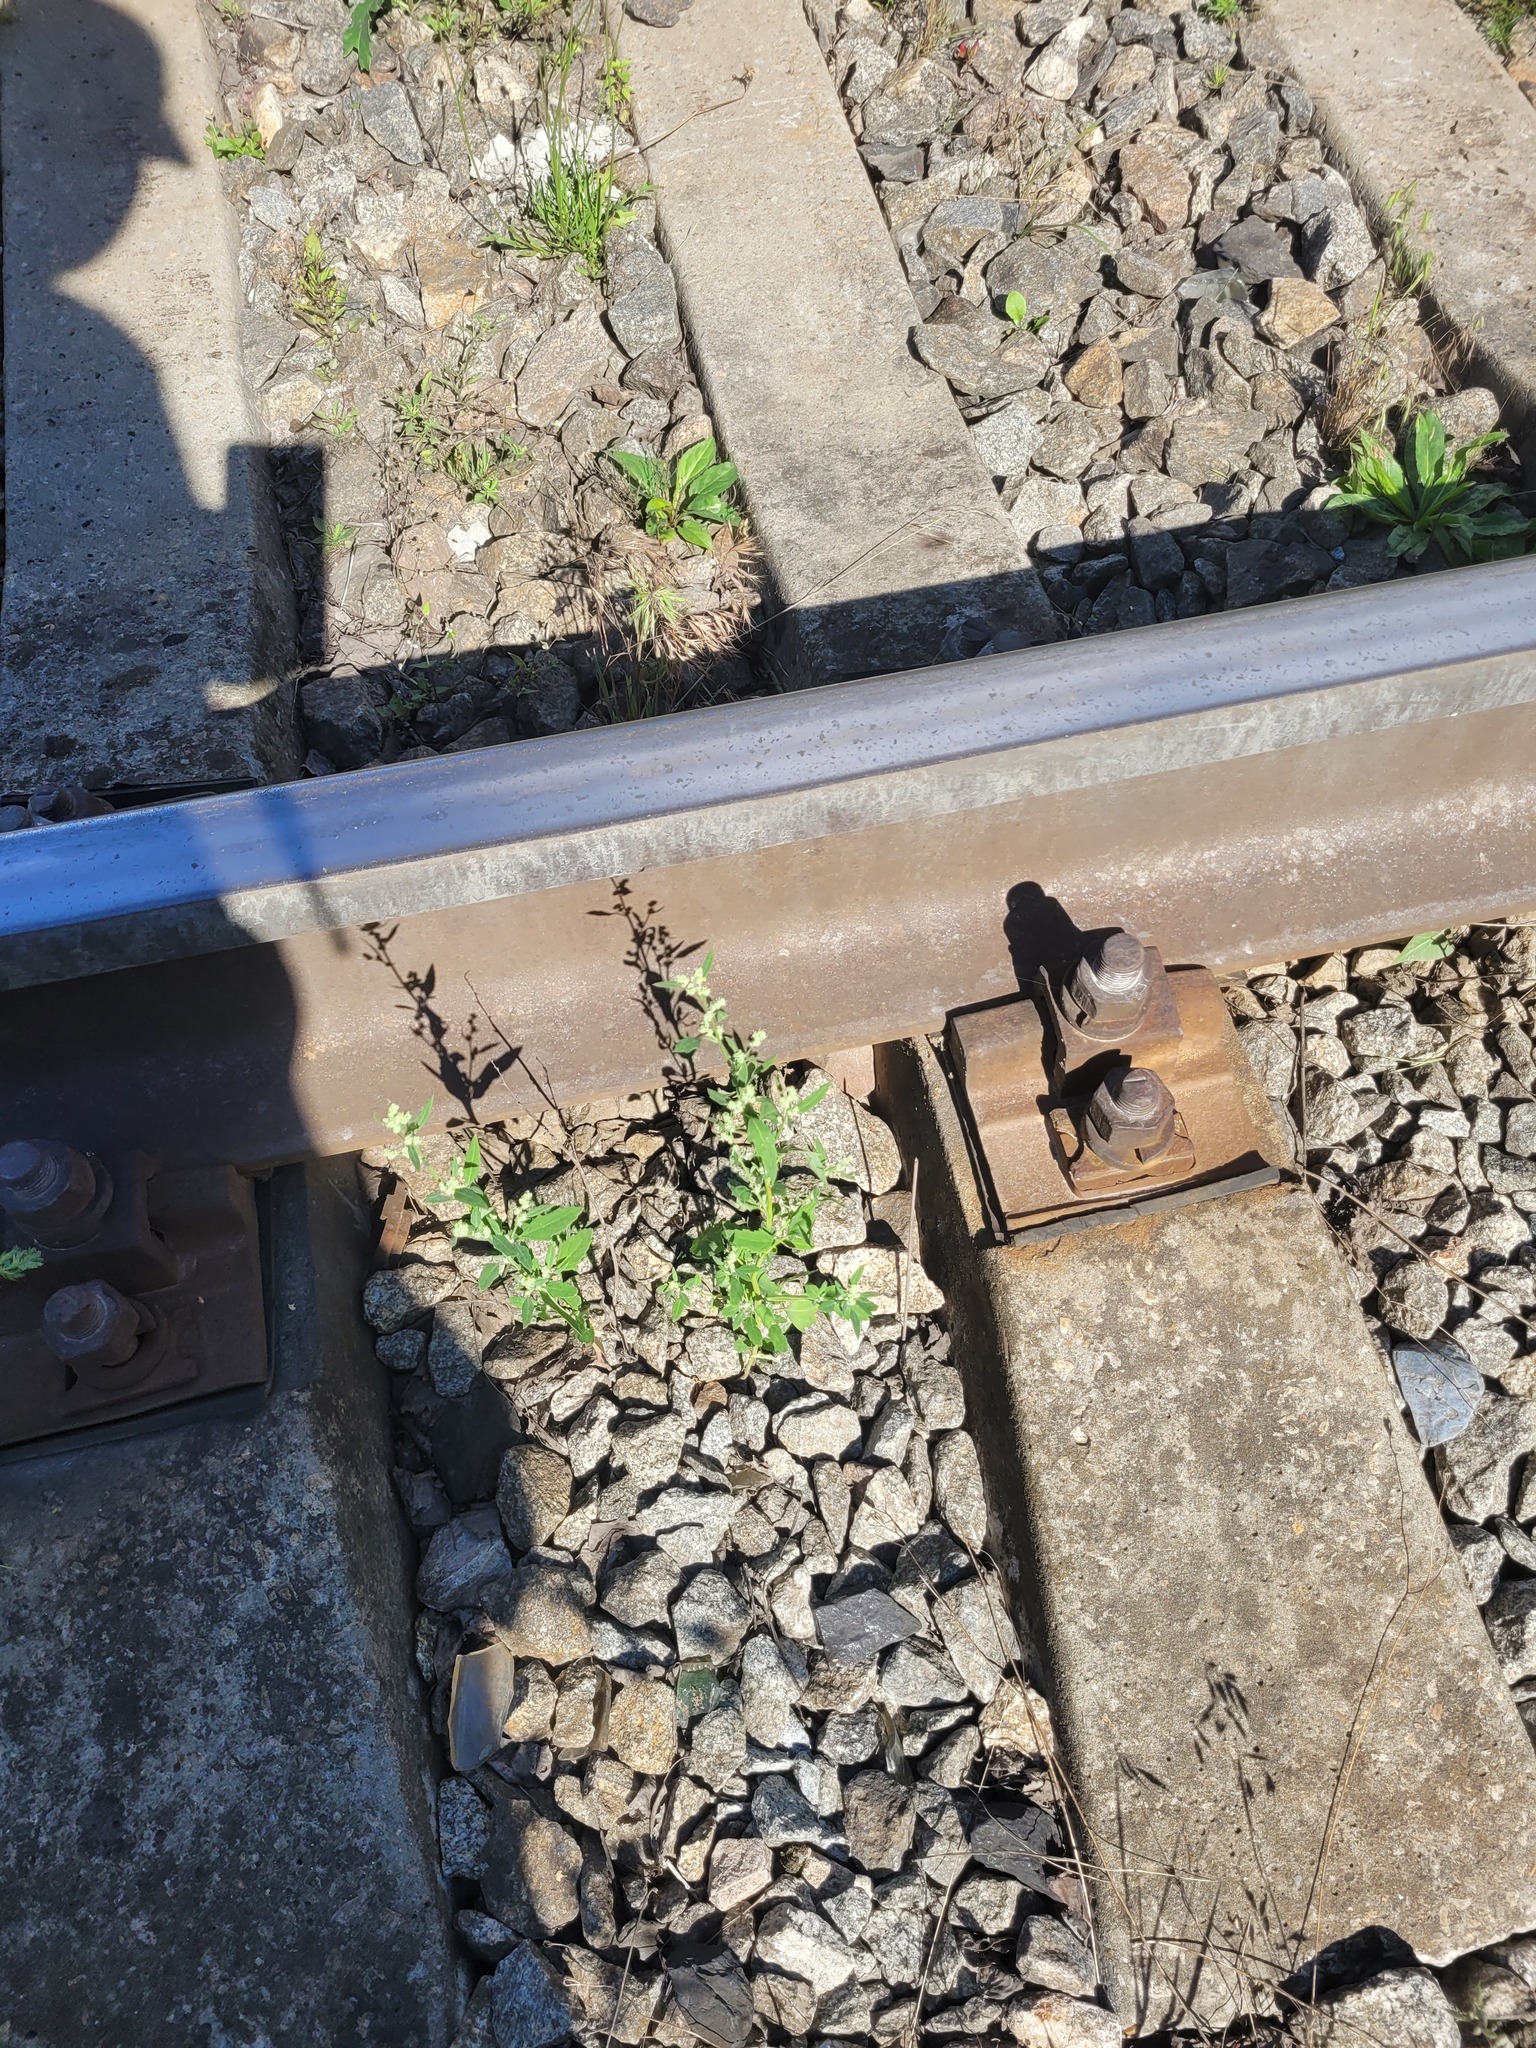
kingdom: Plantae
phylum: Tracheophyta
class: Magnoliopsida
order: Caryophyllales
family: Amaranthaceae
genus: Chenopodium
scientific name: Chenopodium album
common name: Fat-hen
